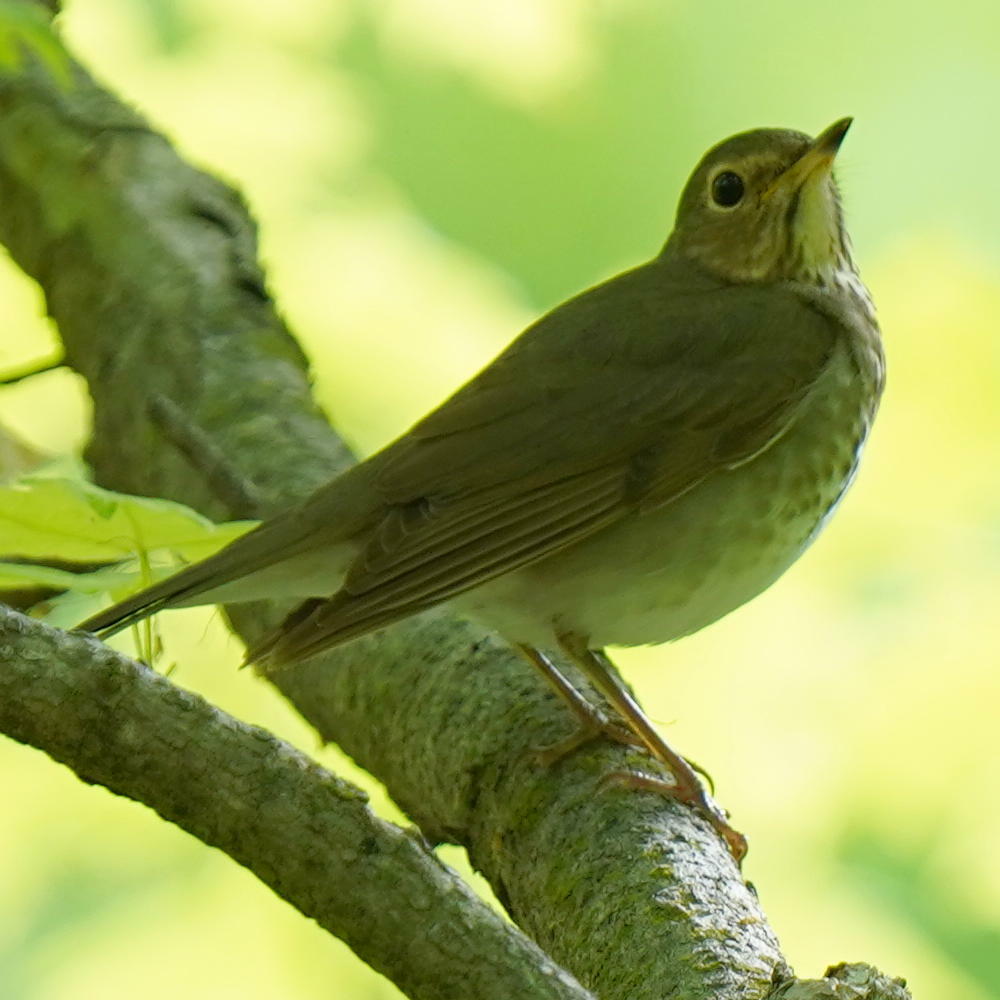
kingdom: Animalia
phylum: Chordata
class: Aves
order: Passeriformes
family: Turdidae
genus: Catharus
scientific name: Catharus ustulatus
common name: Swainson's thrush
